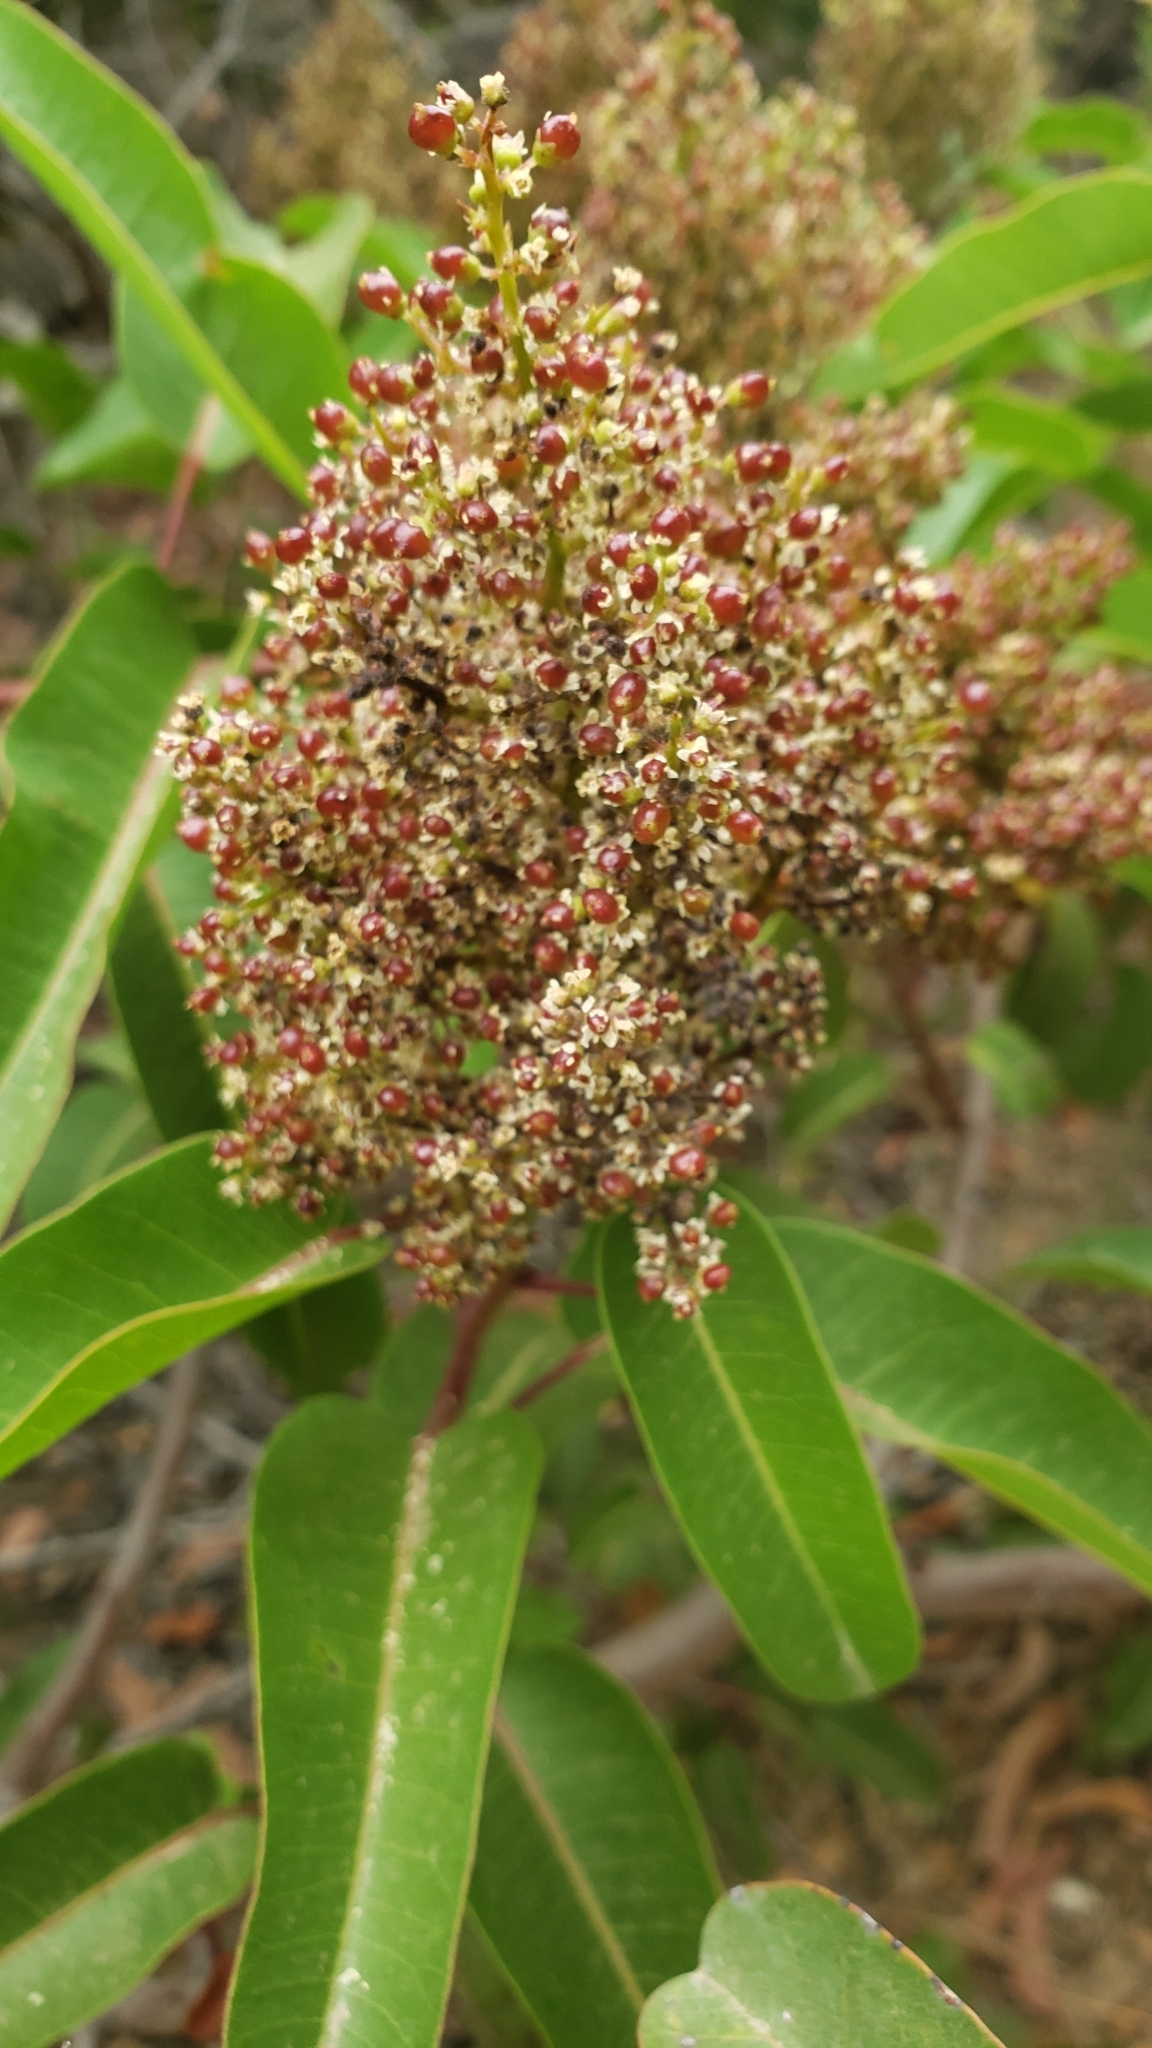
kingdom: Plantae
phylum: Tracheophyta
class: Magnoliopsida
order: Sapindales
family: Anacardiaceae
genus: Malosma
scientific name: Malosma laurina
